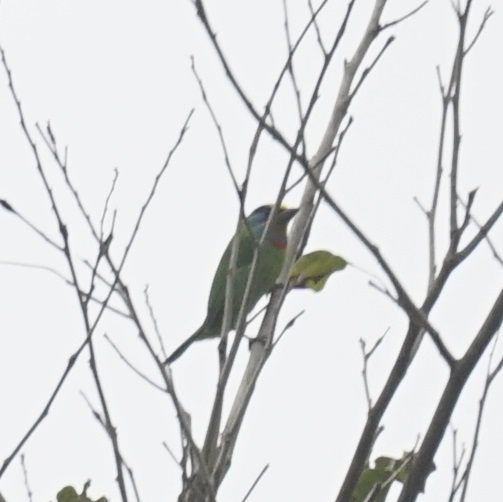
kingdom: Animalia
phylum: Chordata
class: Aves
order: Piciformes
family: Megalaimidae
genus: Psilopogon
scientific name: Psilopogon nuchalis
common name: Taiwan barbet
